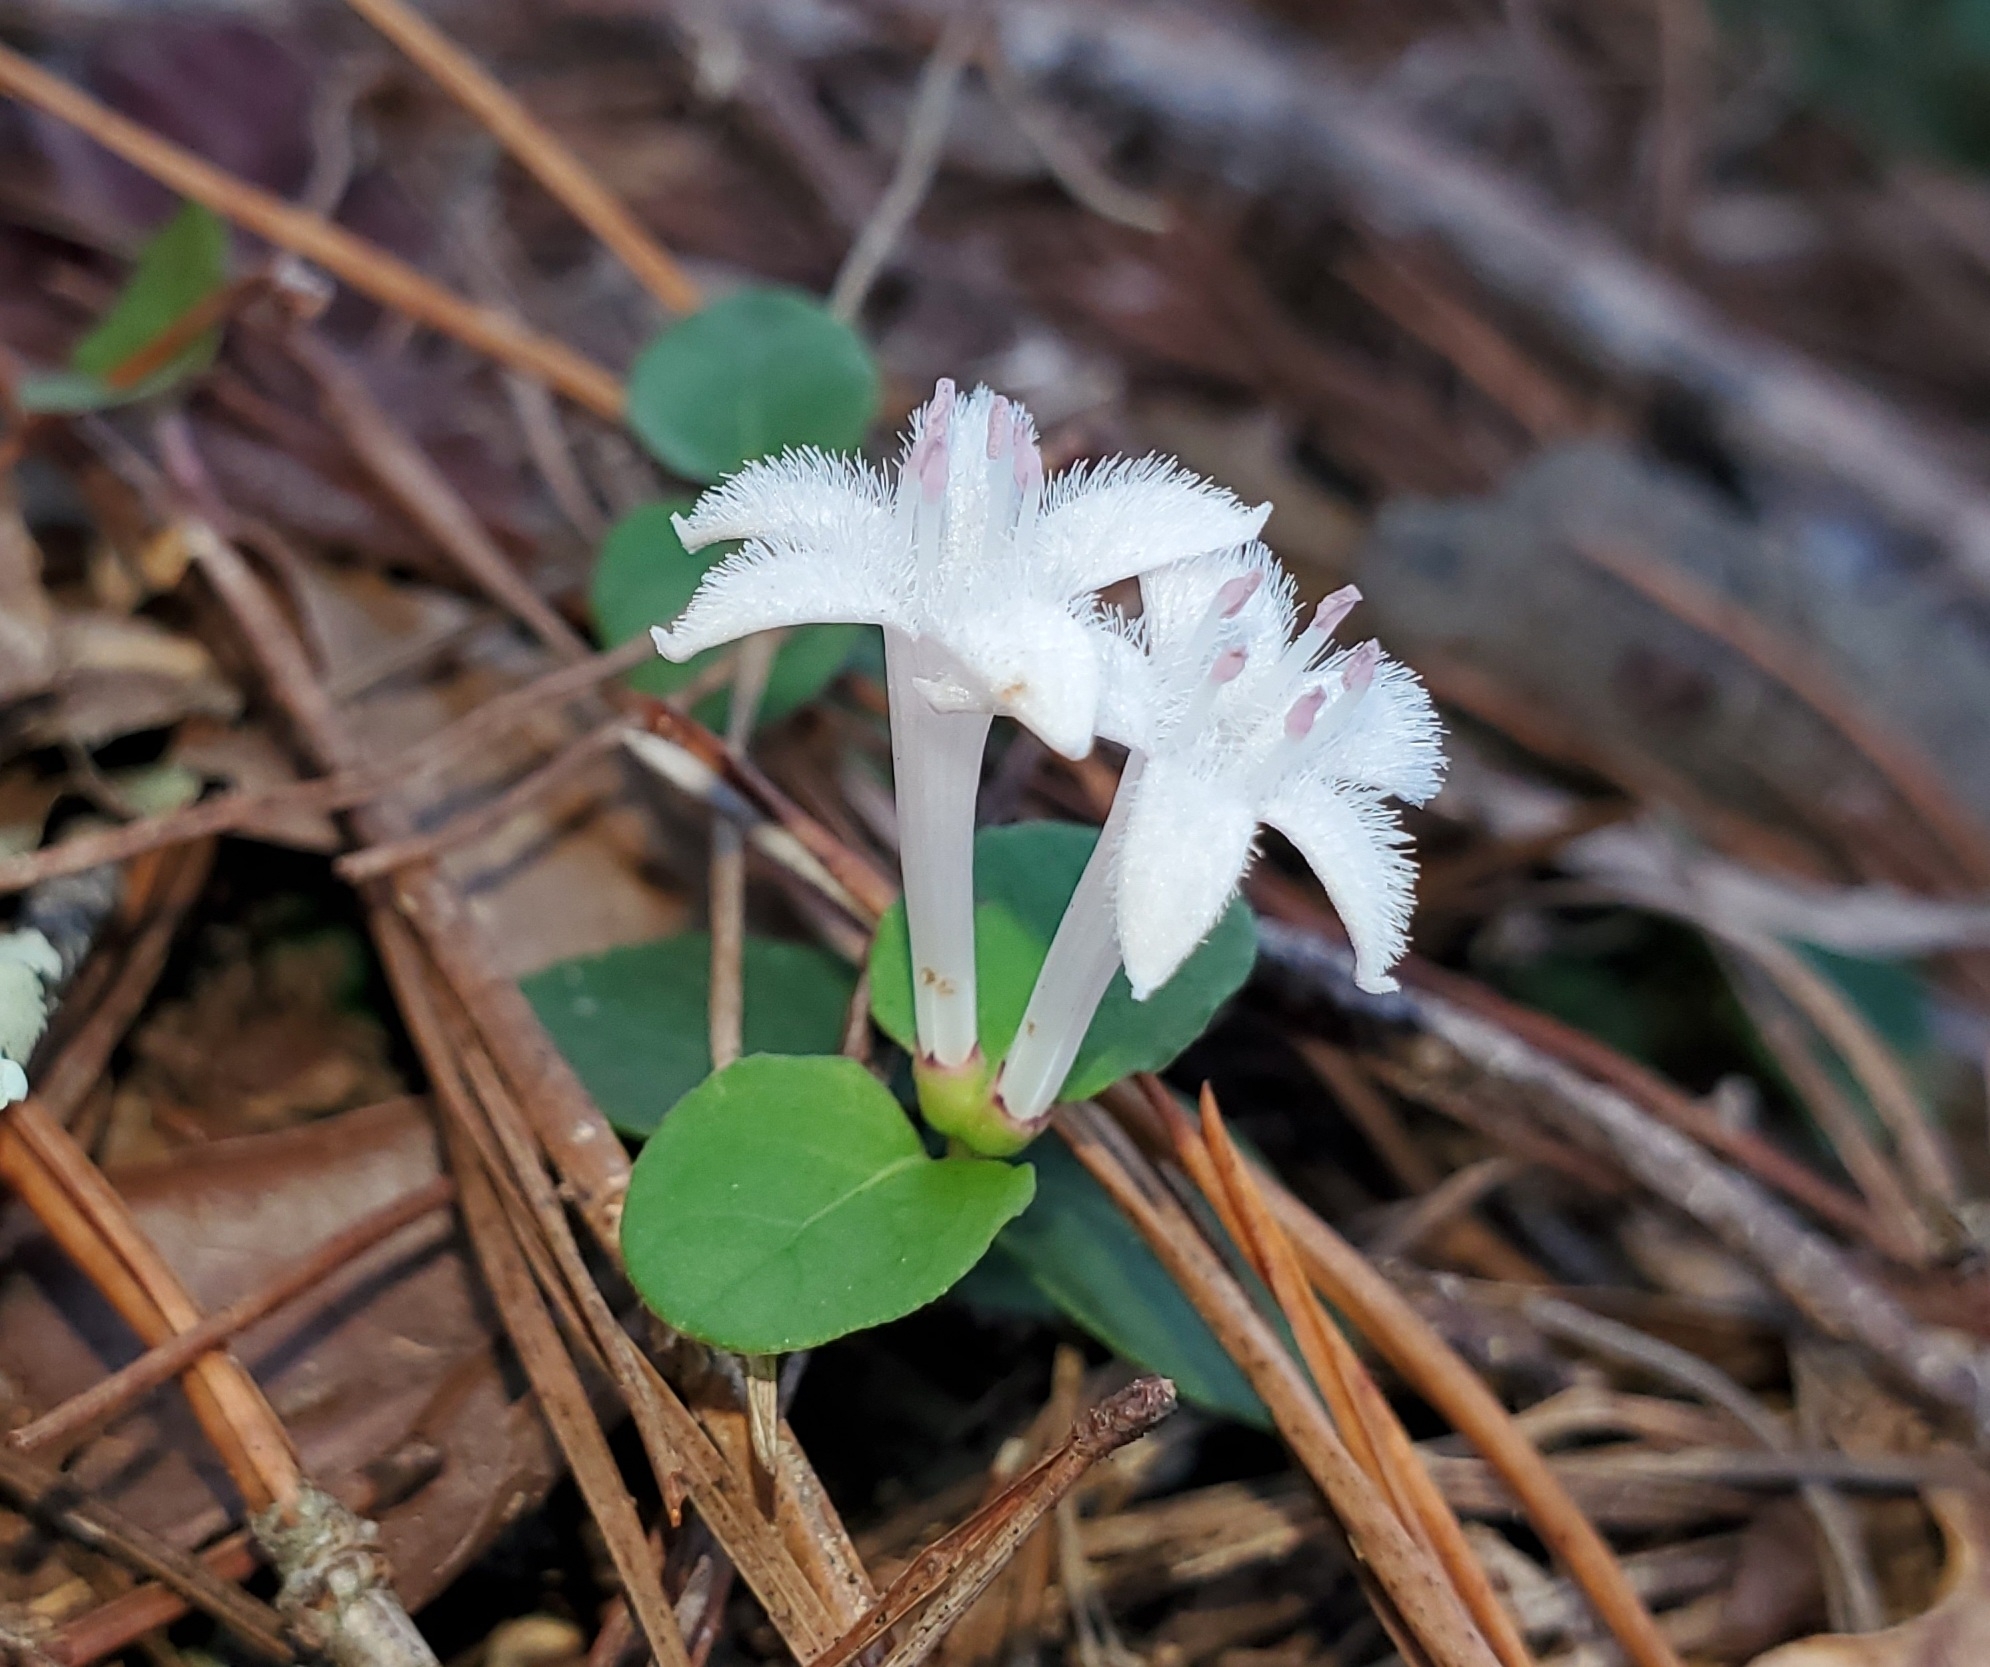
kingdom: Plantae
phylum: Tracheophyta
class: Magnoliopsida
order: Gentianales
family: Rubiaceae
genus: Mitchella
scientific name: Mitchella repens
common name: Partridge-berry
